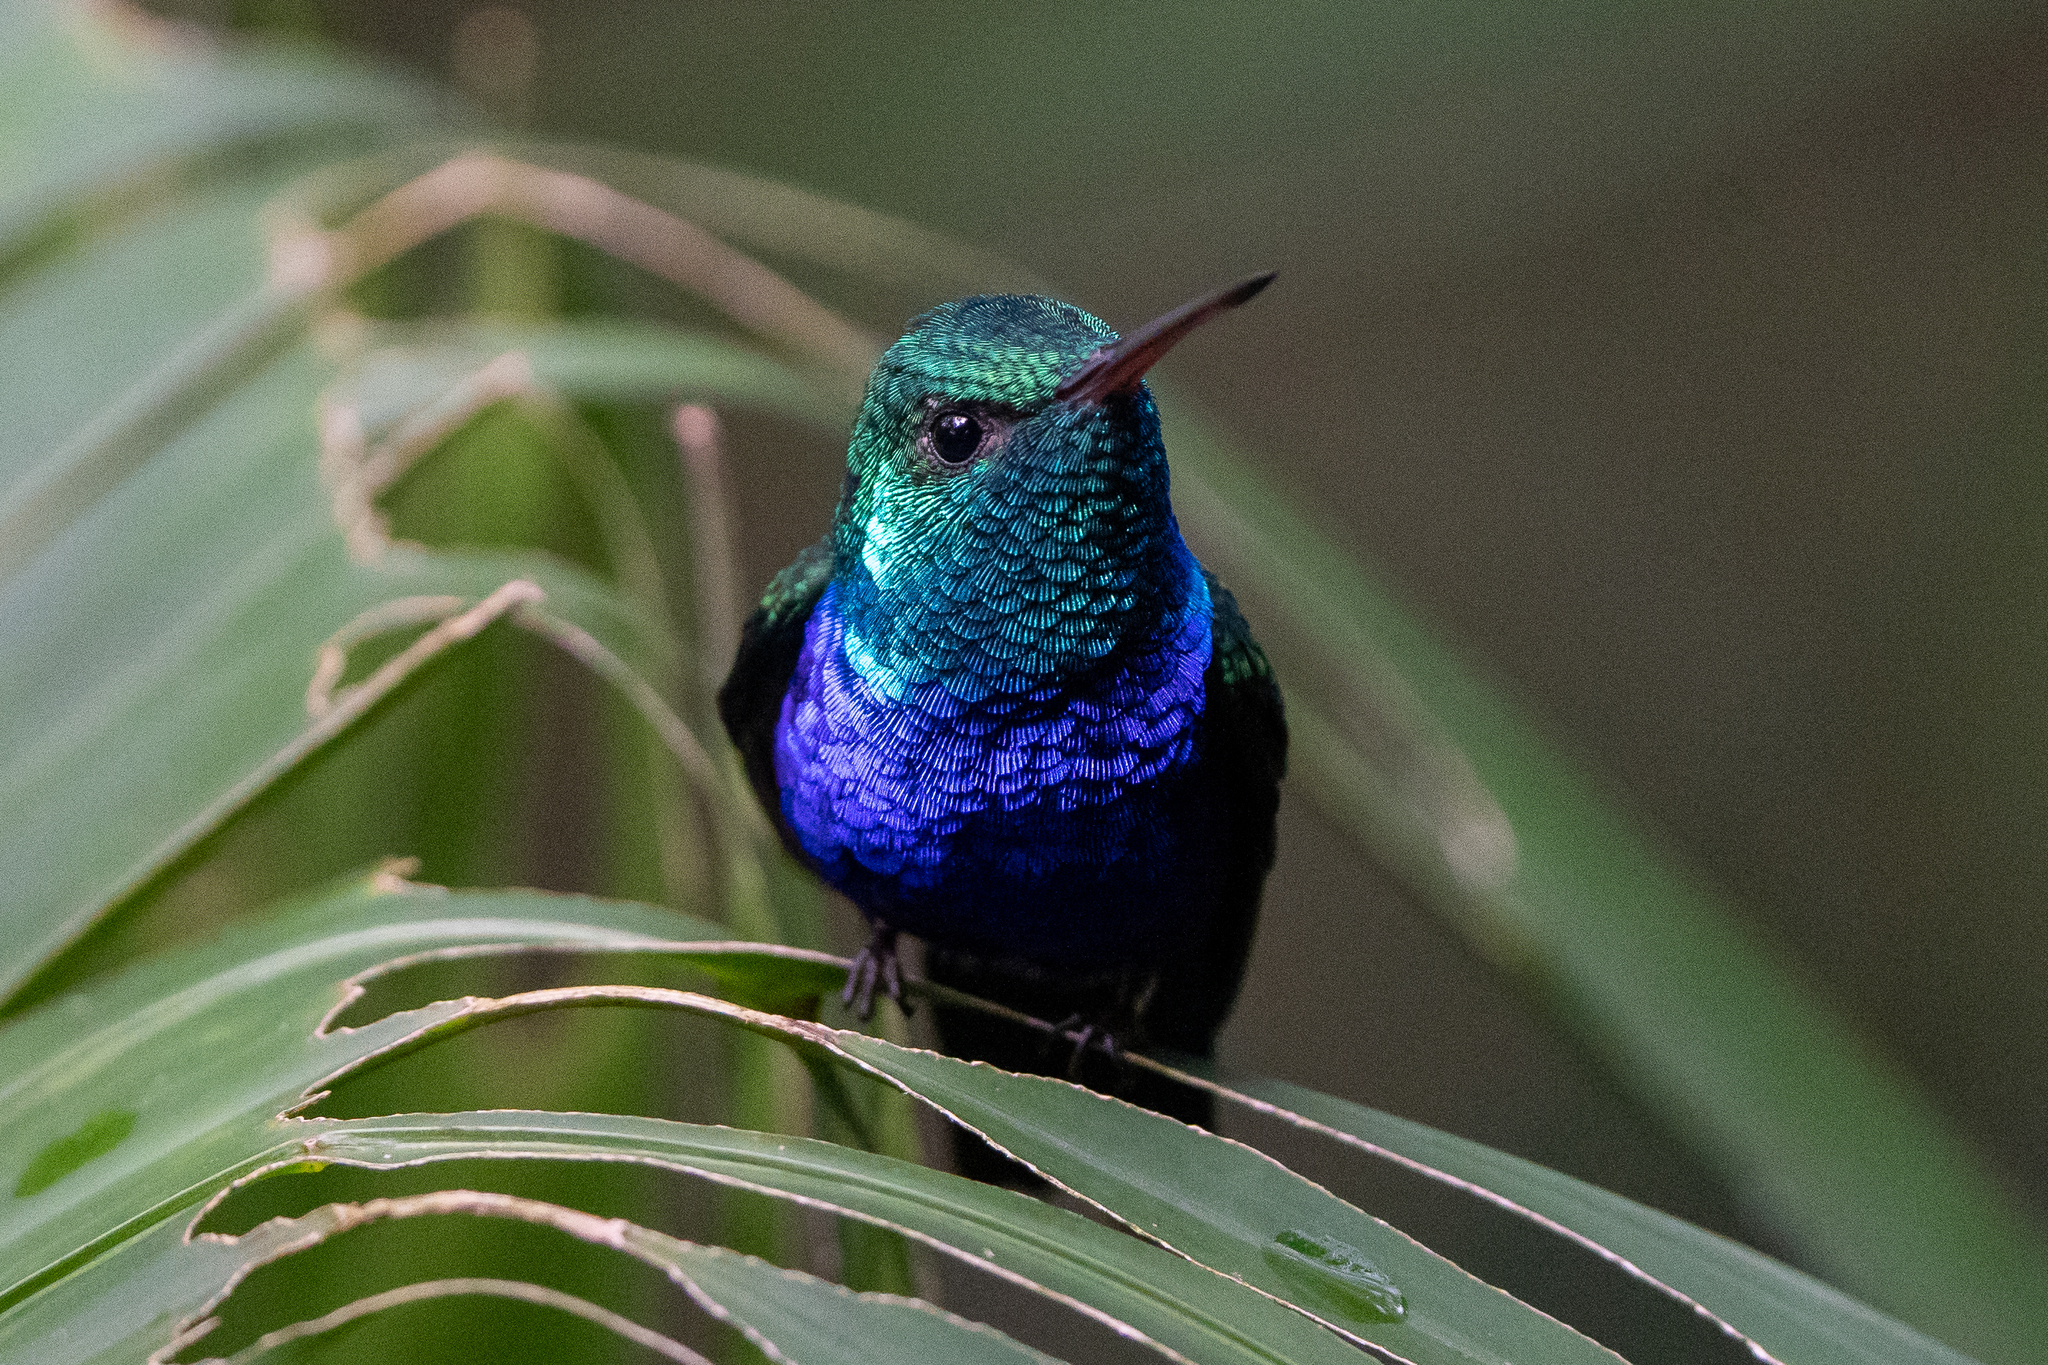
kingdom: Animalia
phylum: Chordata
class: Aves
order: Apodiformes
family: Trochilidae
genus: Chlorestes
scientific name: Chlorestes julie
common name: Violet-bellied hummingbird
